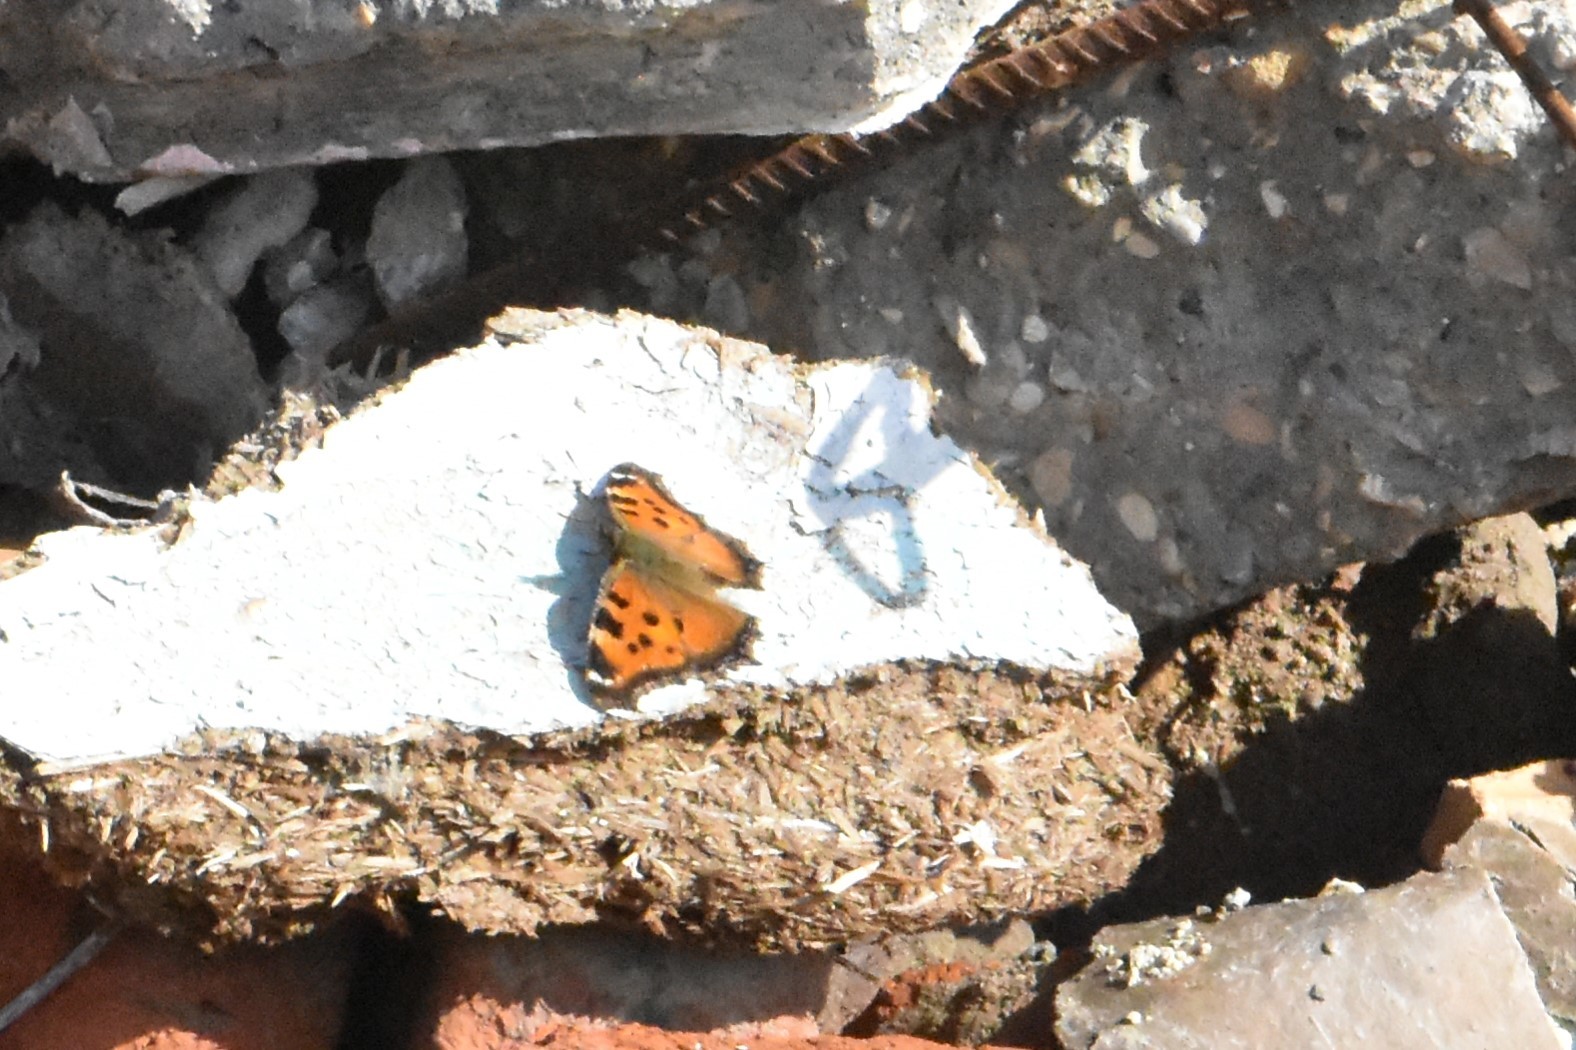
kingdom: Animalia
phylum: Arthropoda
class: Insecta
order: Lepidoptera
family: Nymphalidae
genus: Nymphalis
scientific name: Nymphalis xanthomelas
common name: Scarce tortoiseshell
